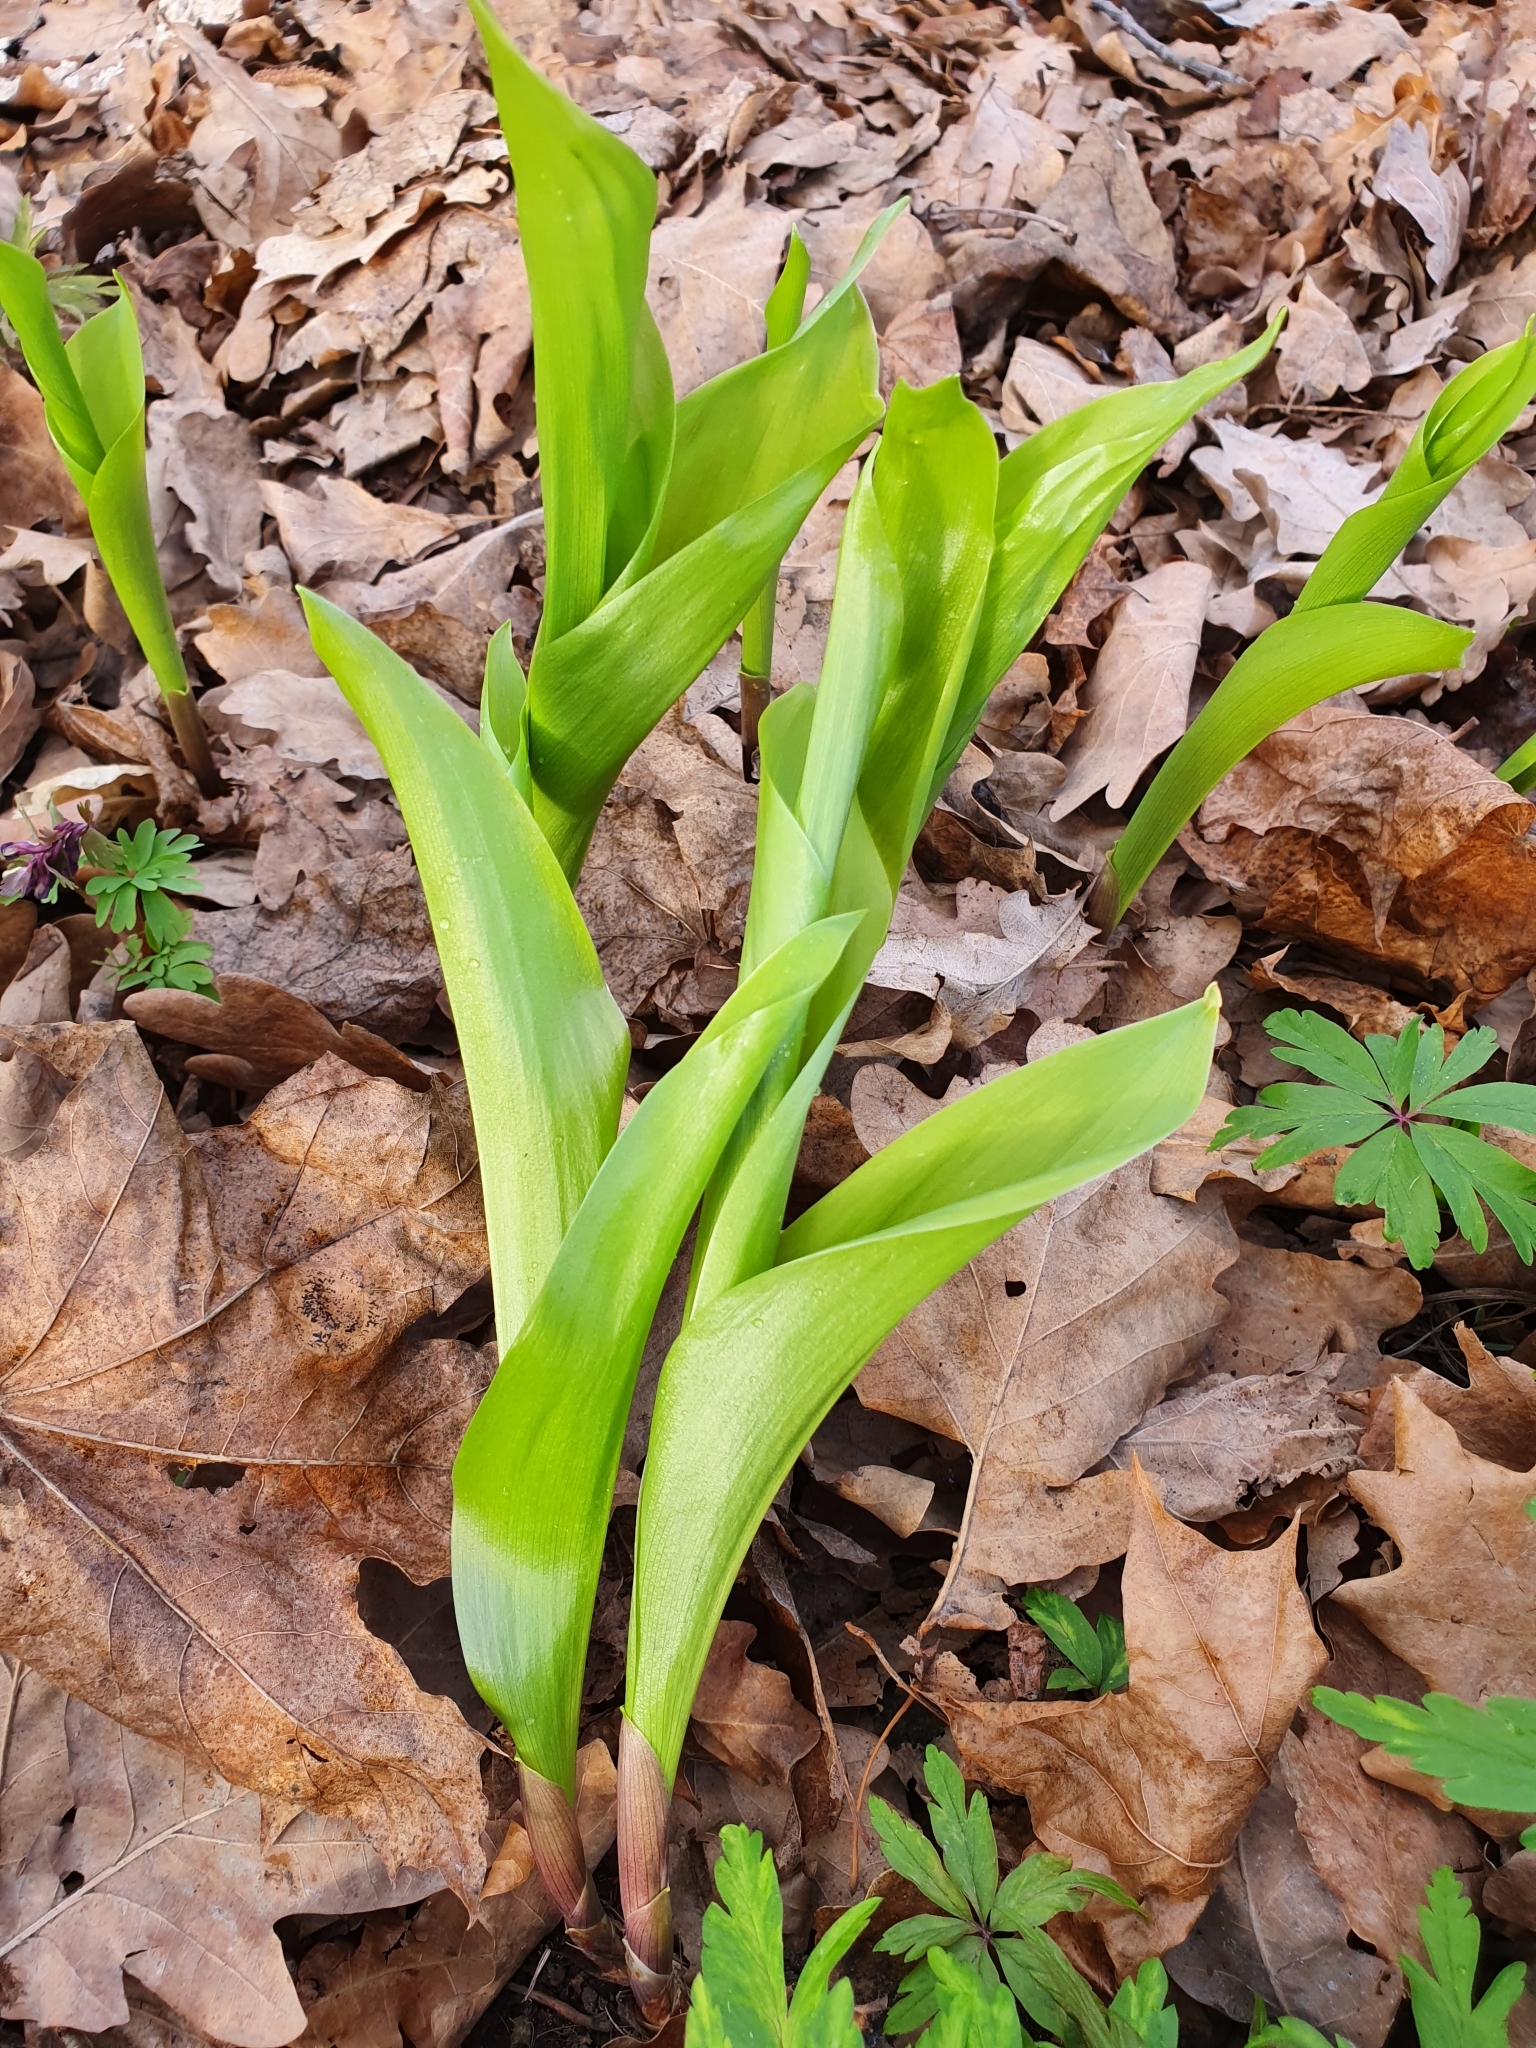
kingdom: Plantae
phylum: Tracheophyta
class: Liliopsida
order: Asparagales
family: Asparagaceae
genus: Convallaria
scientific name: Convallaria majalis
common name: Lily-of-the-valley
